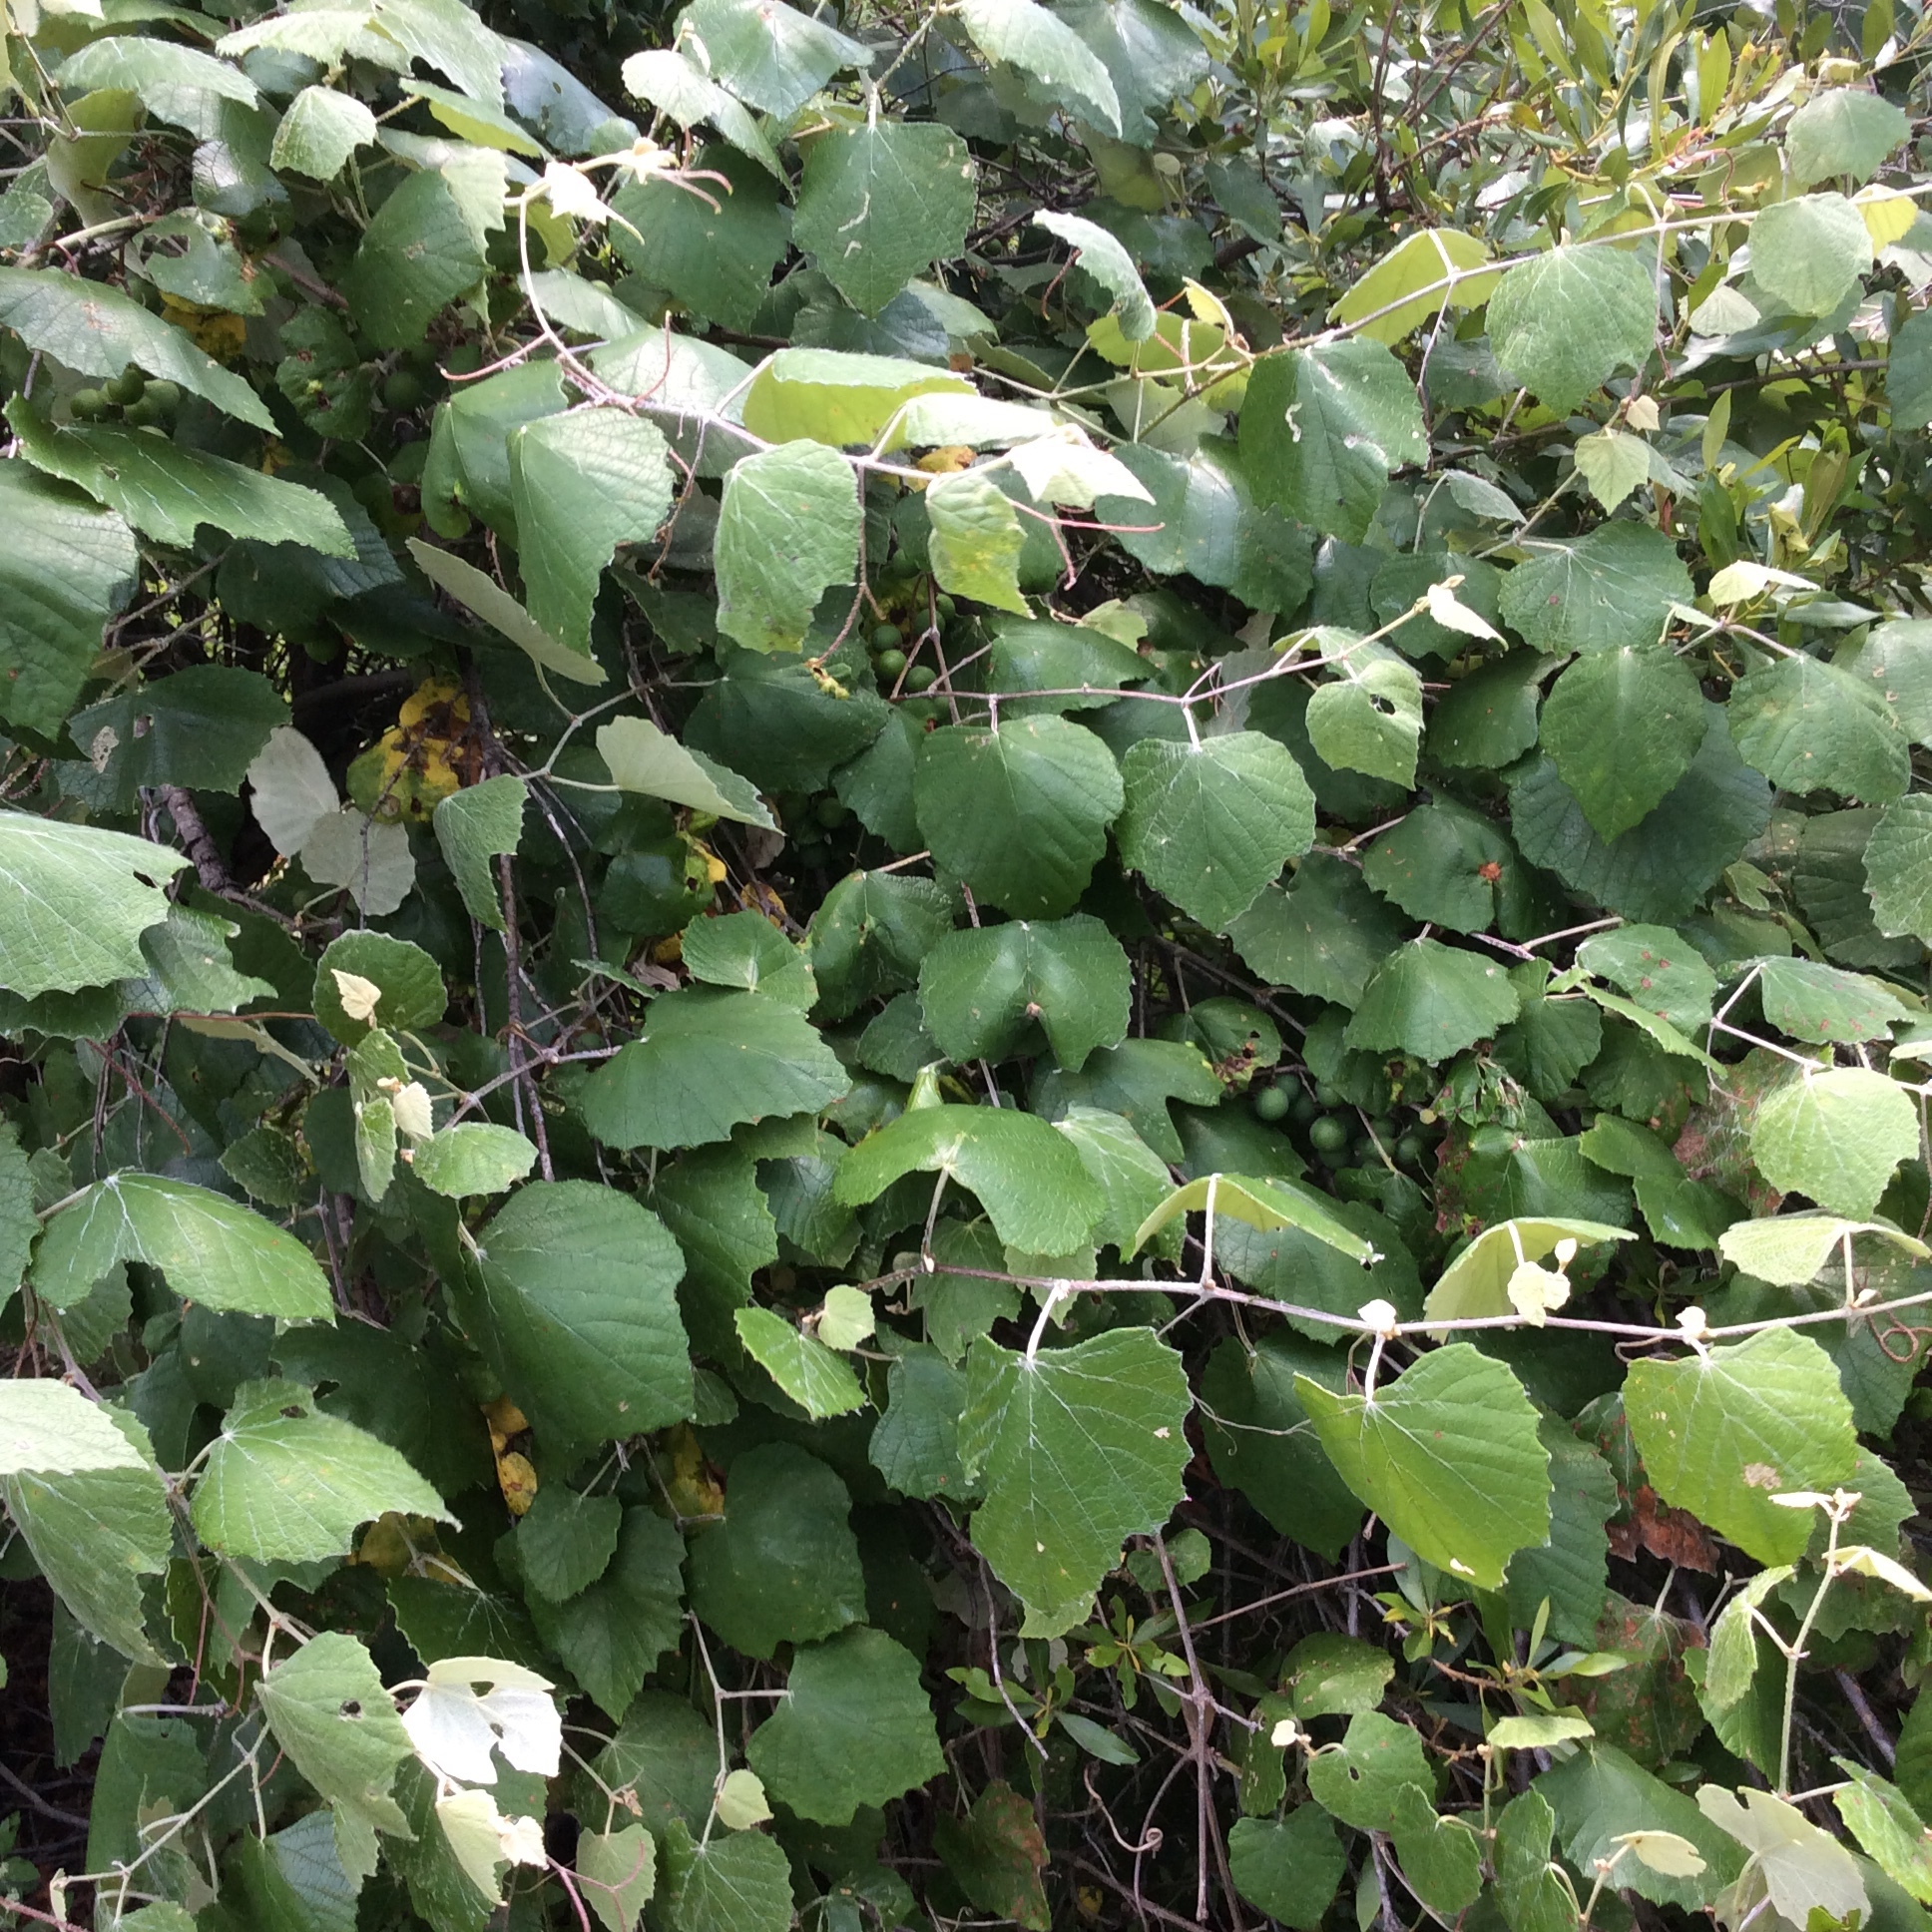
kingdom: Plantae
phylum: Tracheophyta
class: Magnoliopsida
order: Vitales
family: Vitaceae
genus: Vitis
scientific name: Vitis mustangensis
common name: Mustang grape
